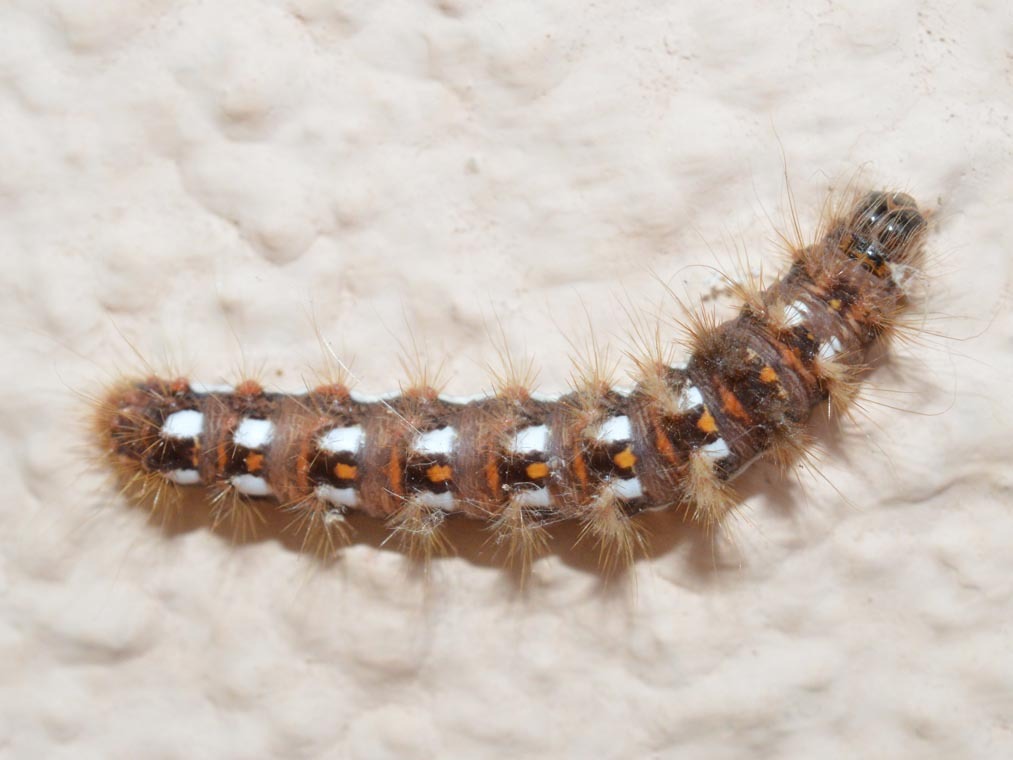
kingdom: Animalia
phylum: Arthropoda
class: Insecta
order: Lepidoptera
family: Noctuidae
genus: Acronicta
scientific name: Acronicta rumicis
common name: Knot grass
